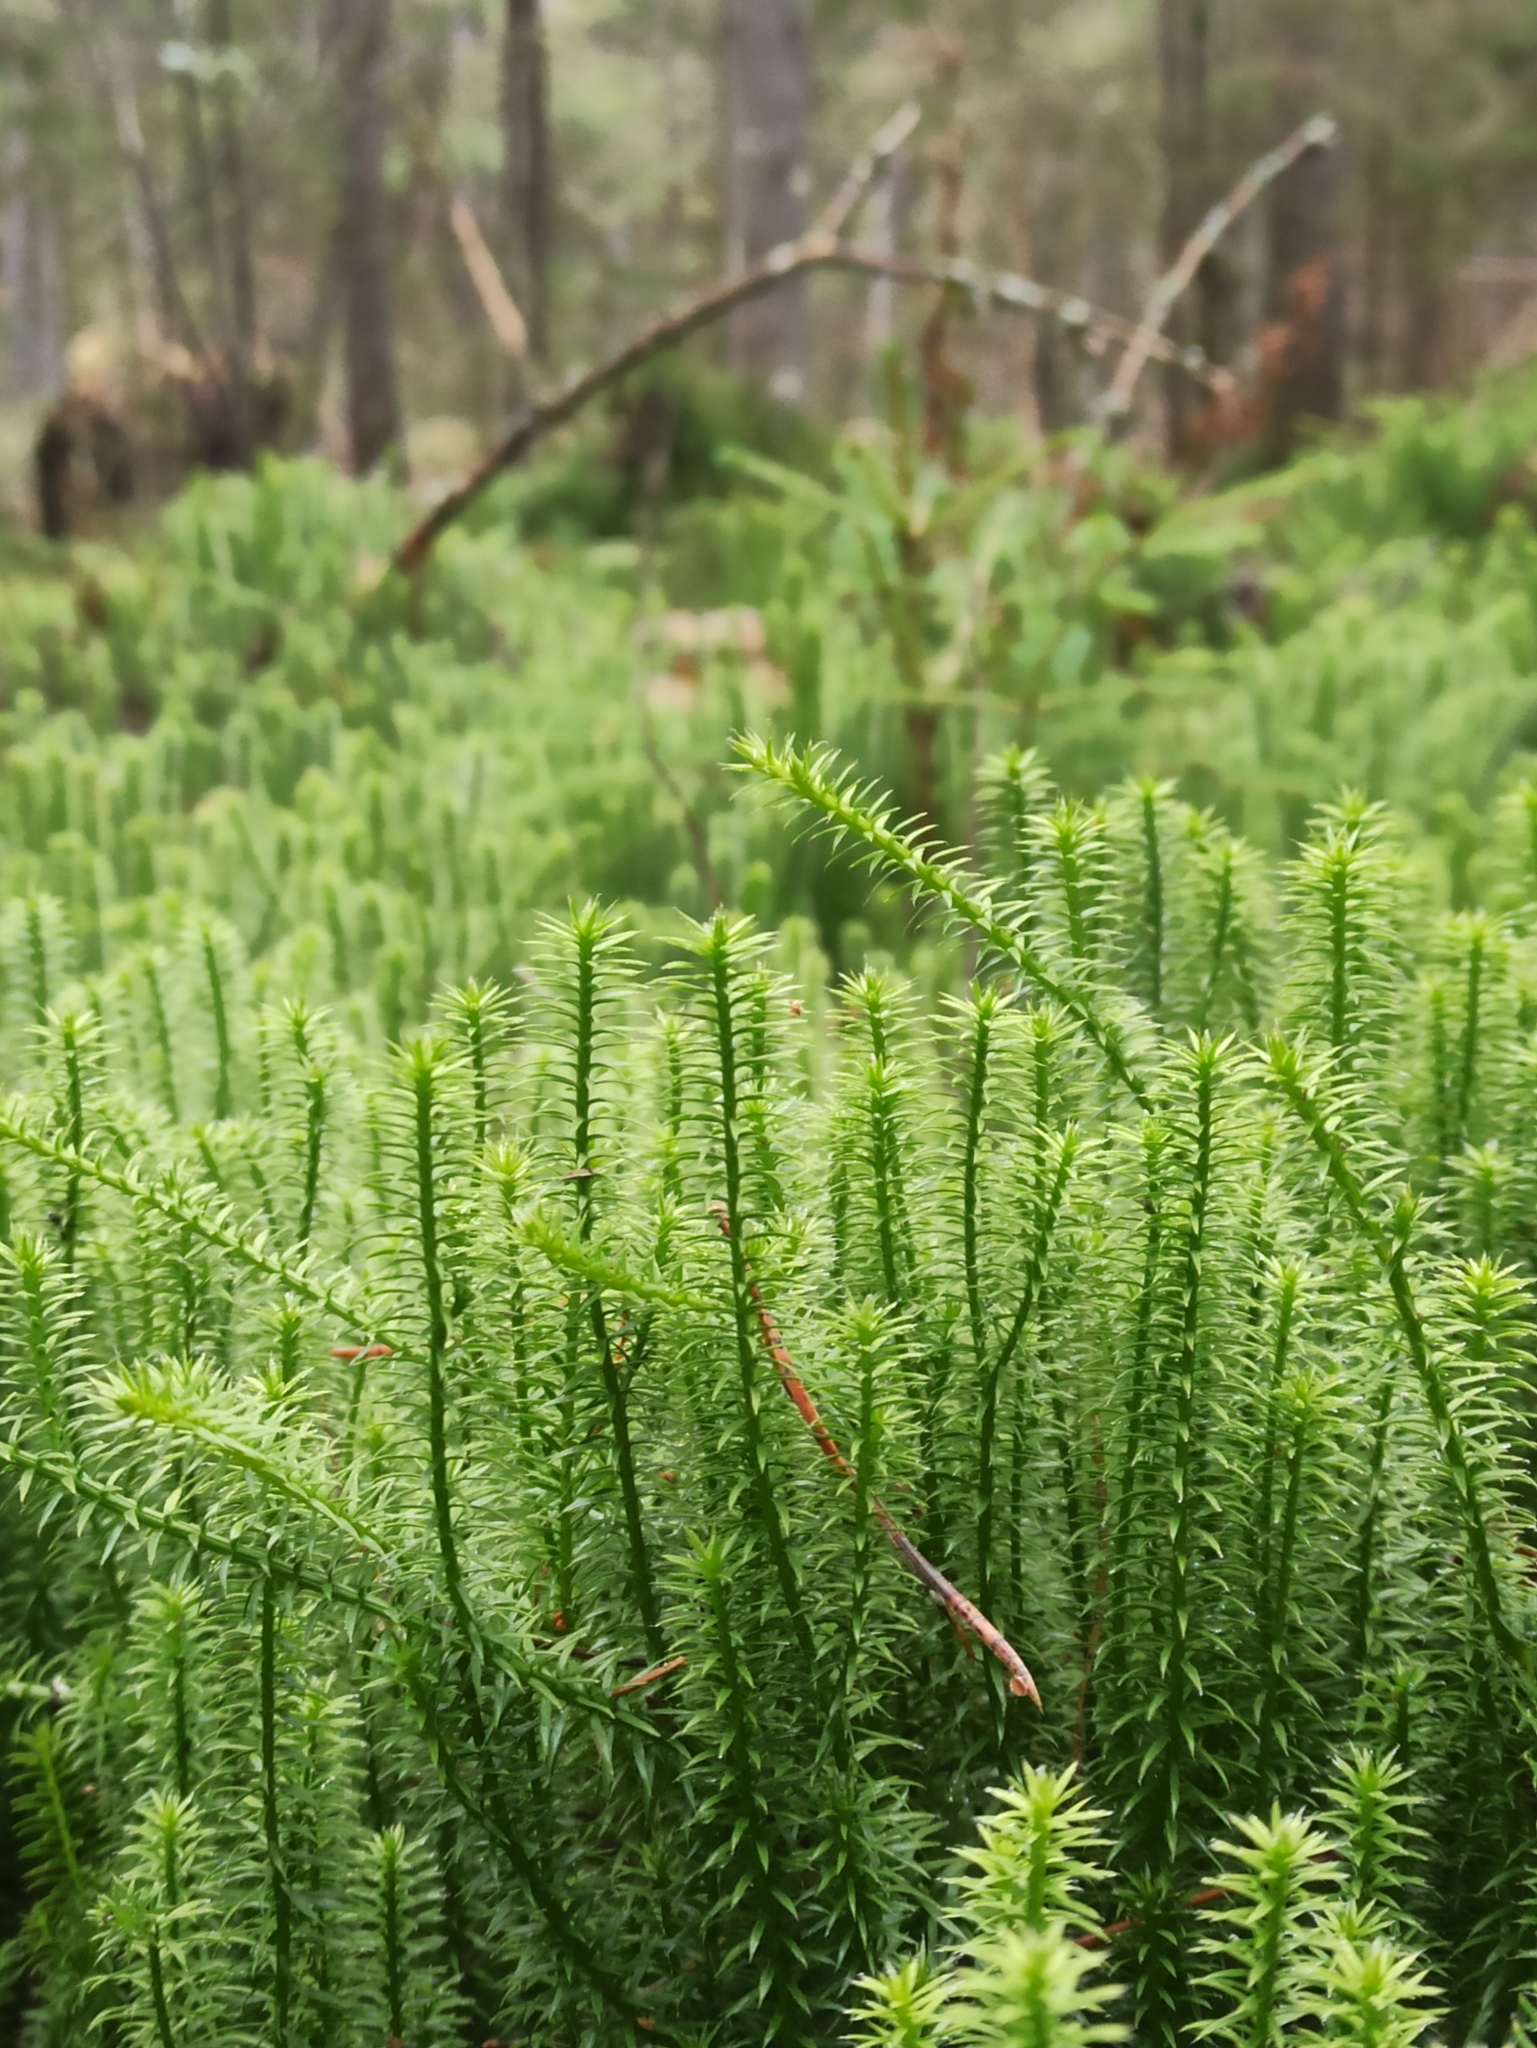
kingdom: Plantae
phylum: Tracheophyta
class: Lycopodiopsida
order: Lycopodiales
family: Lycopodiaceae
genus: Spinulum
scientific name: Spinulum annotinum
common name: Interrupted club-moss
